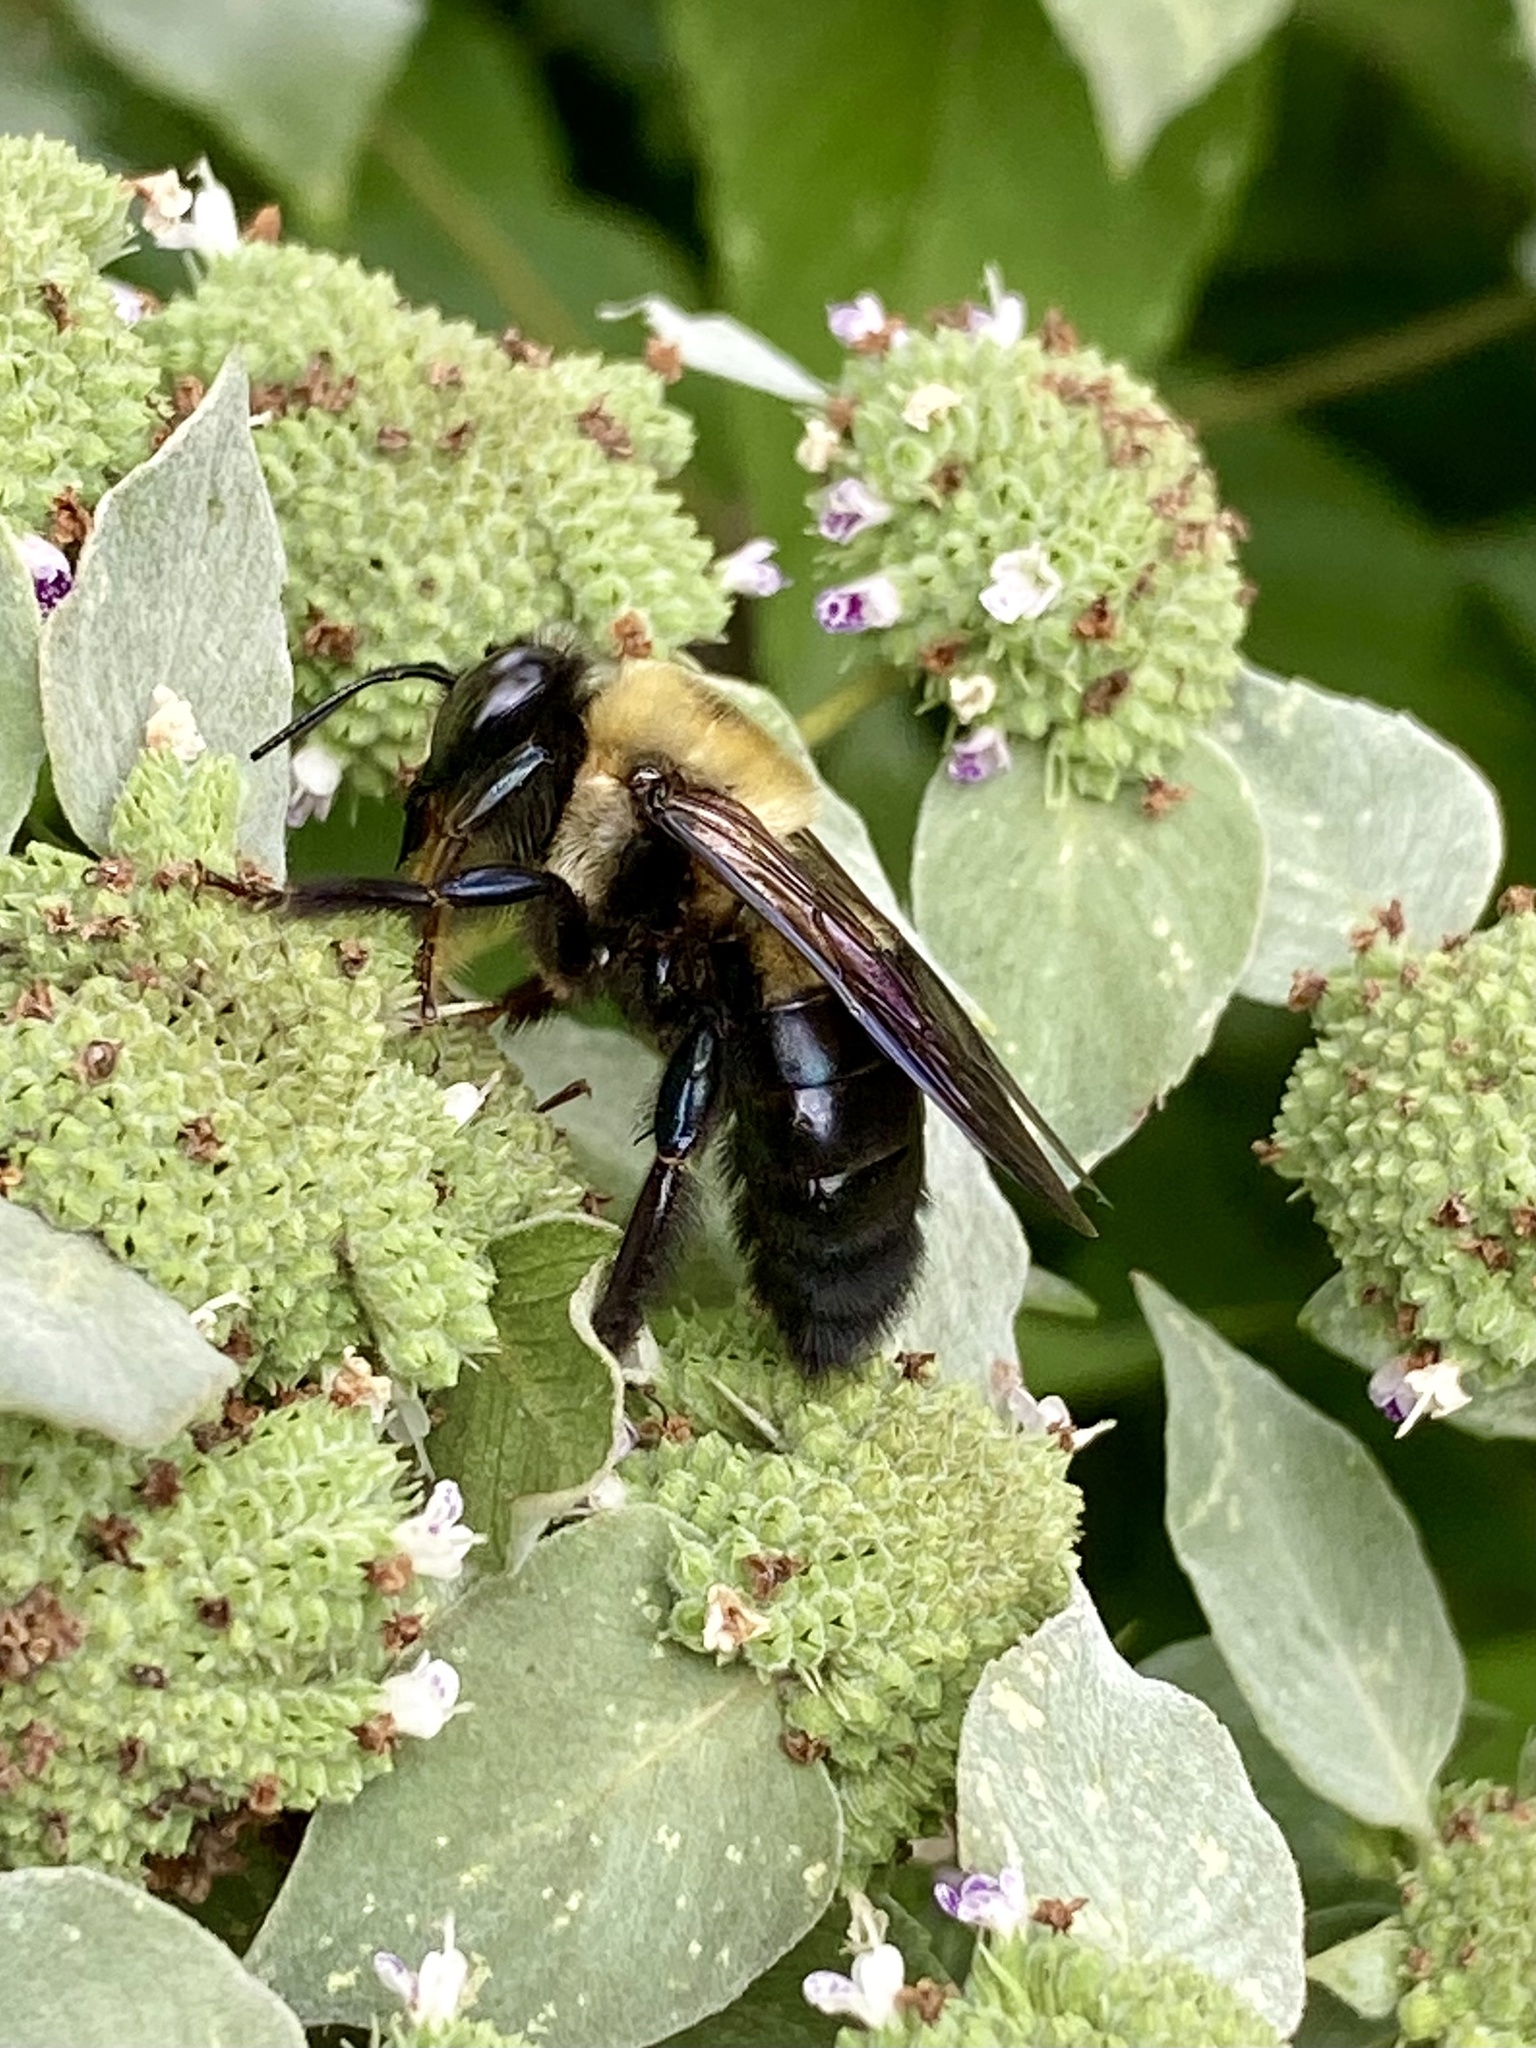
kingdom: Animalia
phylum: Arthropoda
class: Insecta
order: Hymenoptera
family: Apidae
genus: Xylocopa
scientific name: Xylocopa virginica
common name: Carpenter bee
